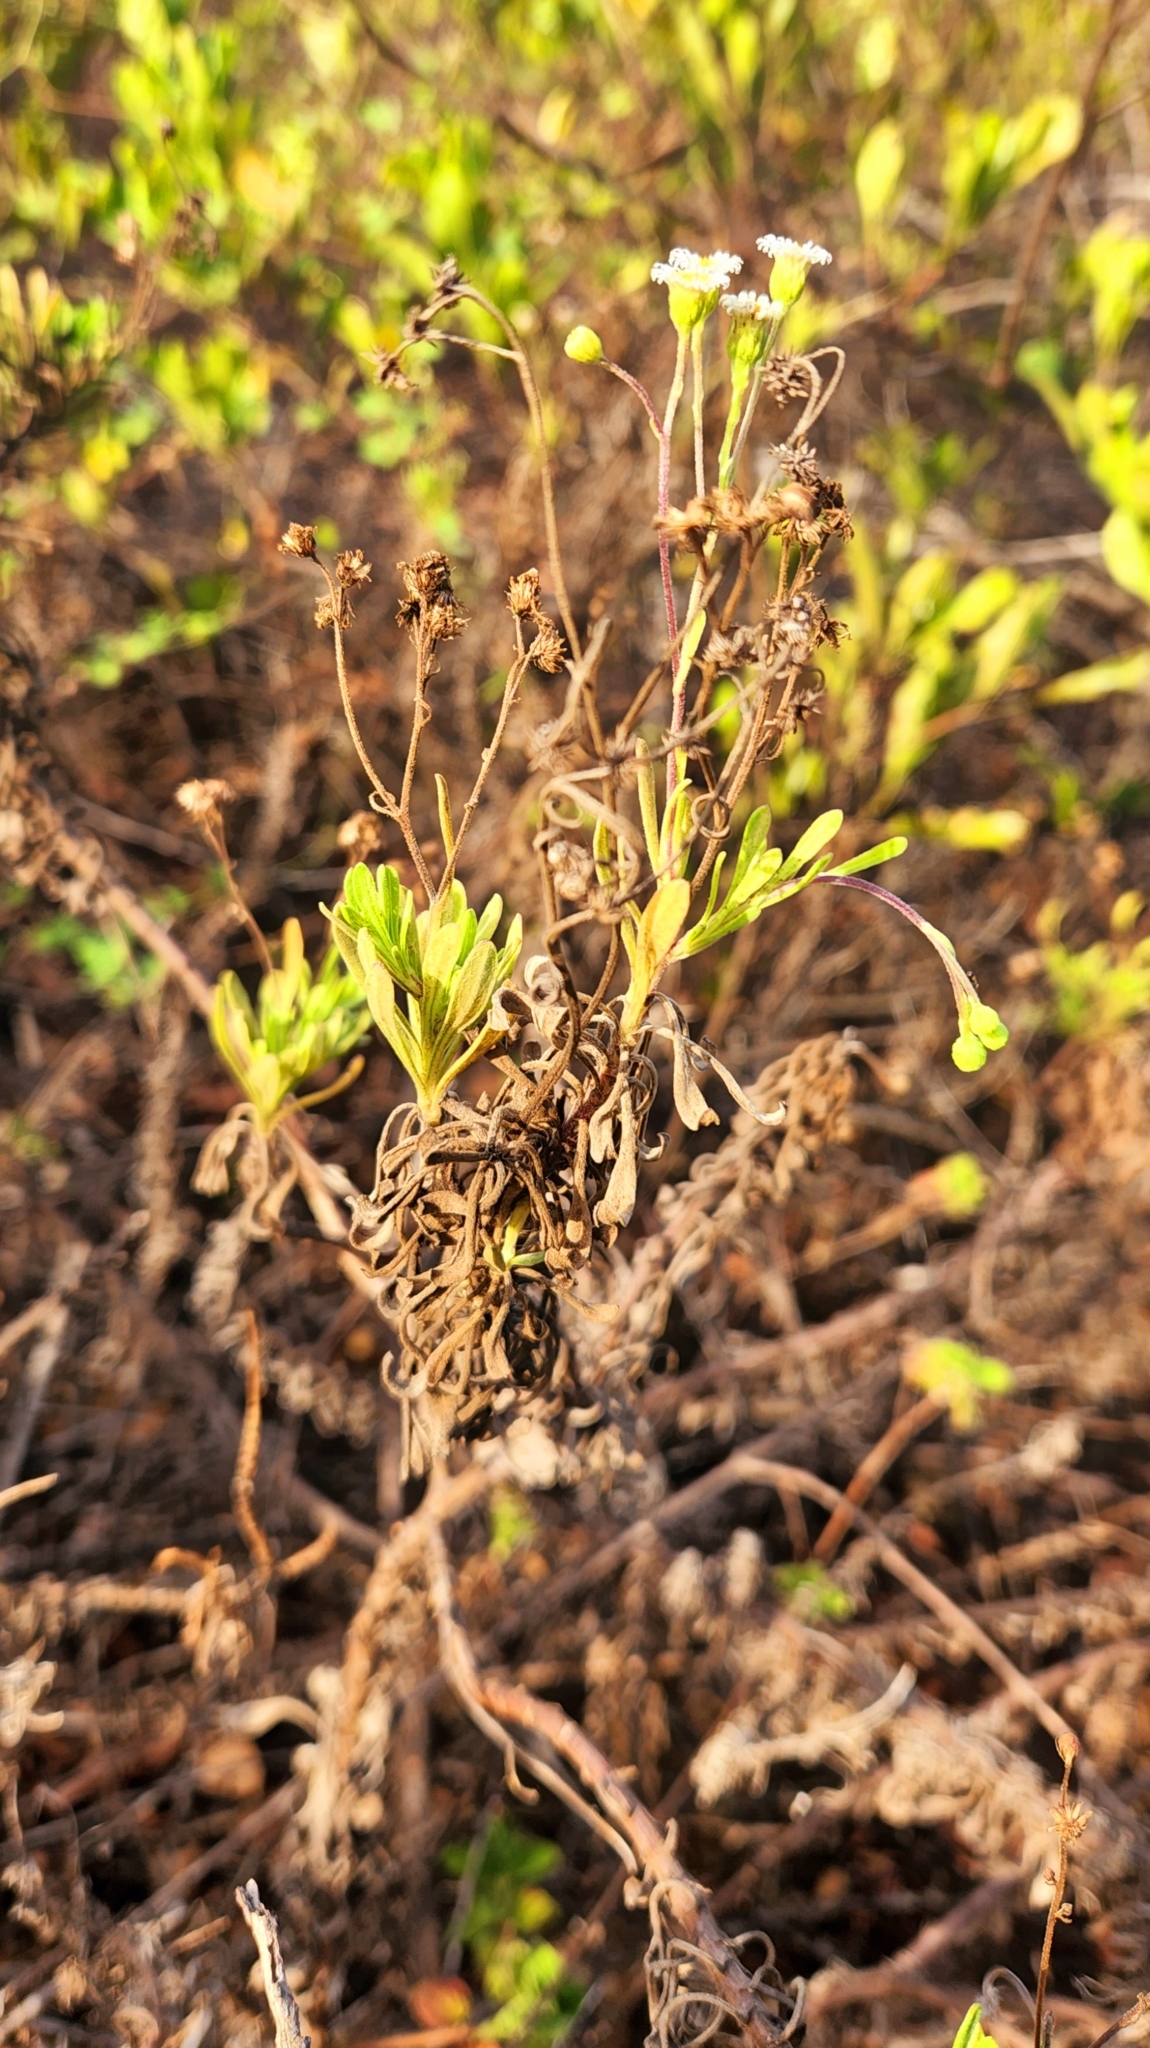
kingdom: Plantae
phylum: Tracheophyta
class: Magnoliopsida
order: Asterales
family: Asteraceae
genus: Erigeron
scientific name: Erigeron socorrensis
